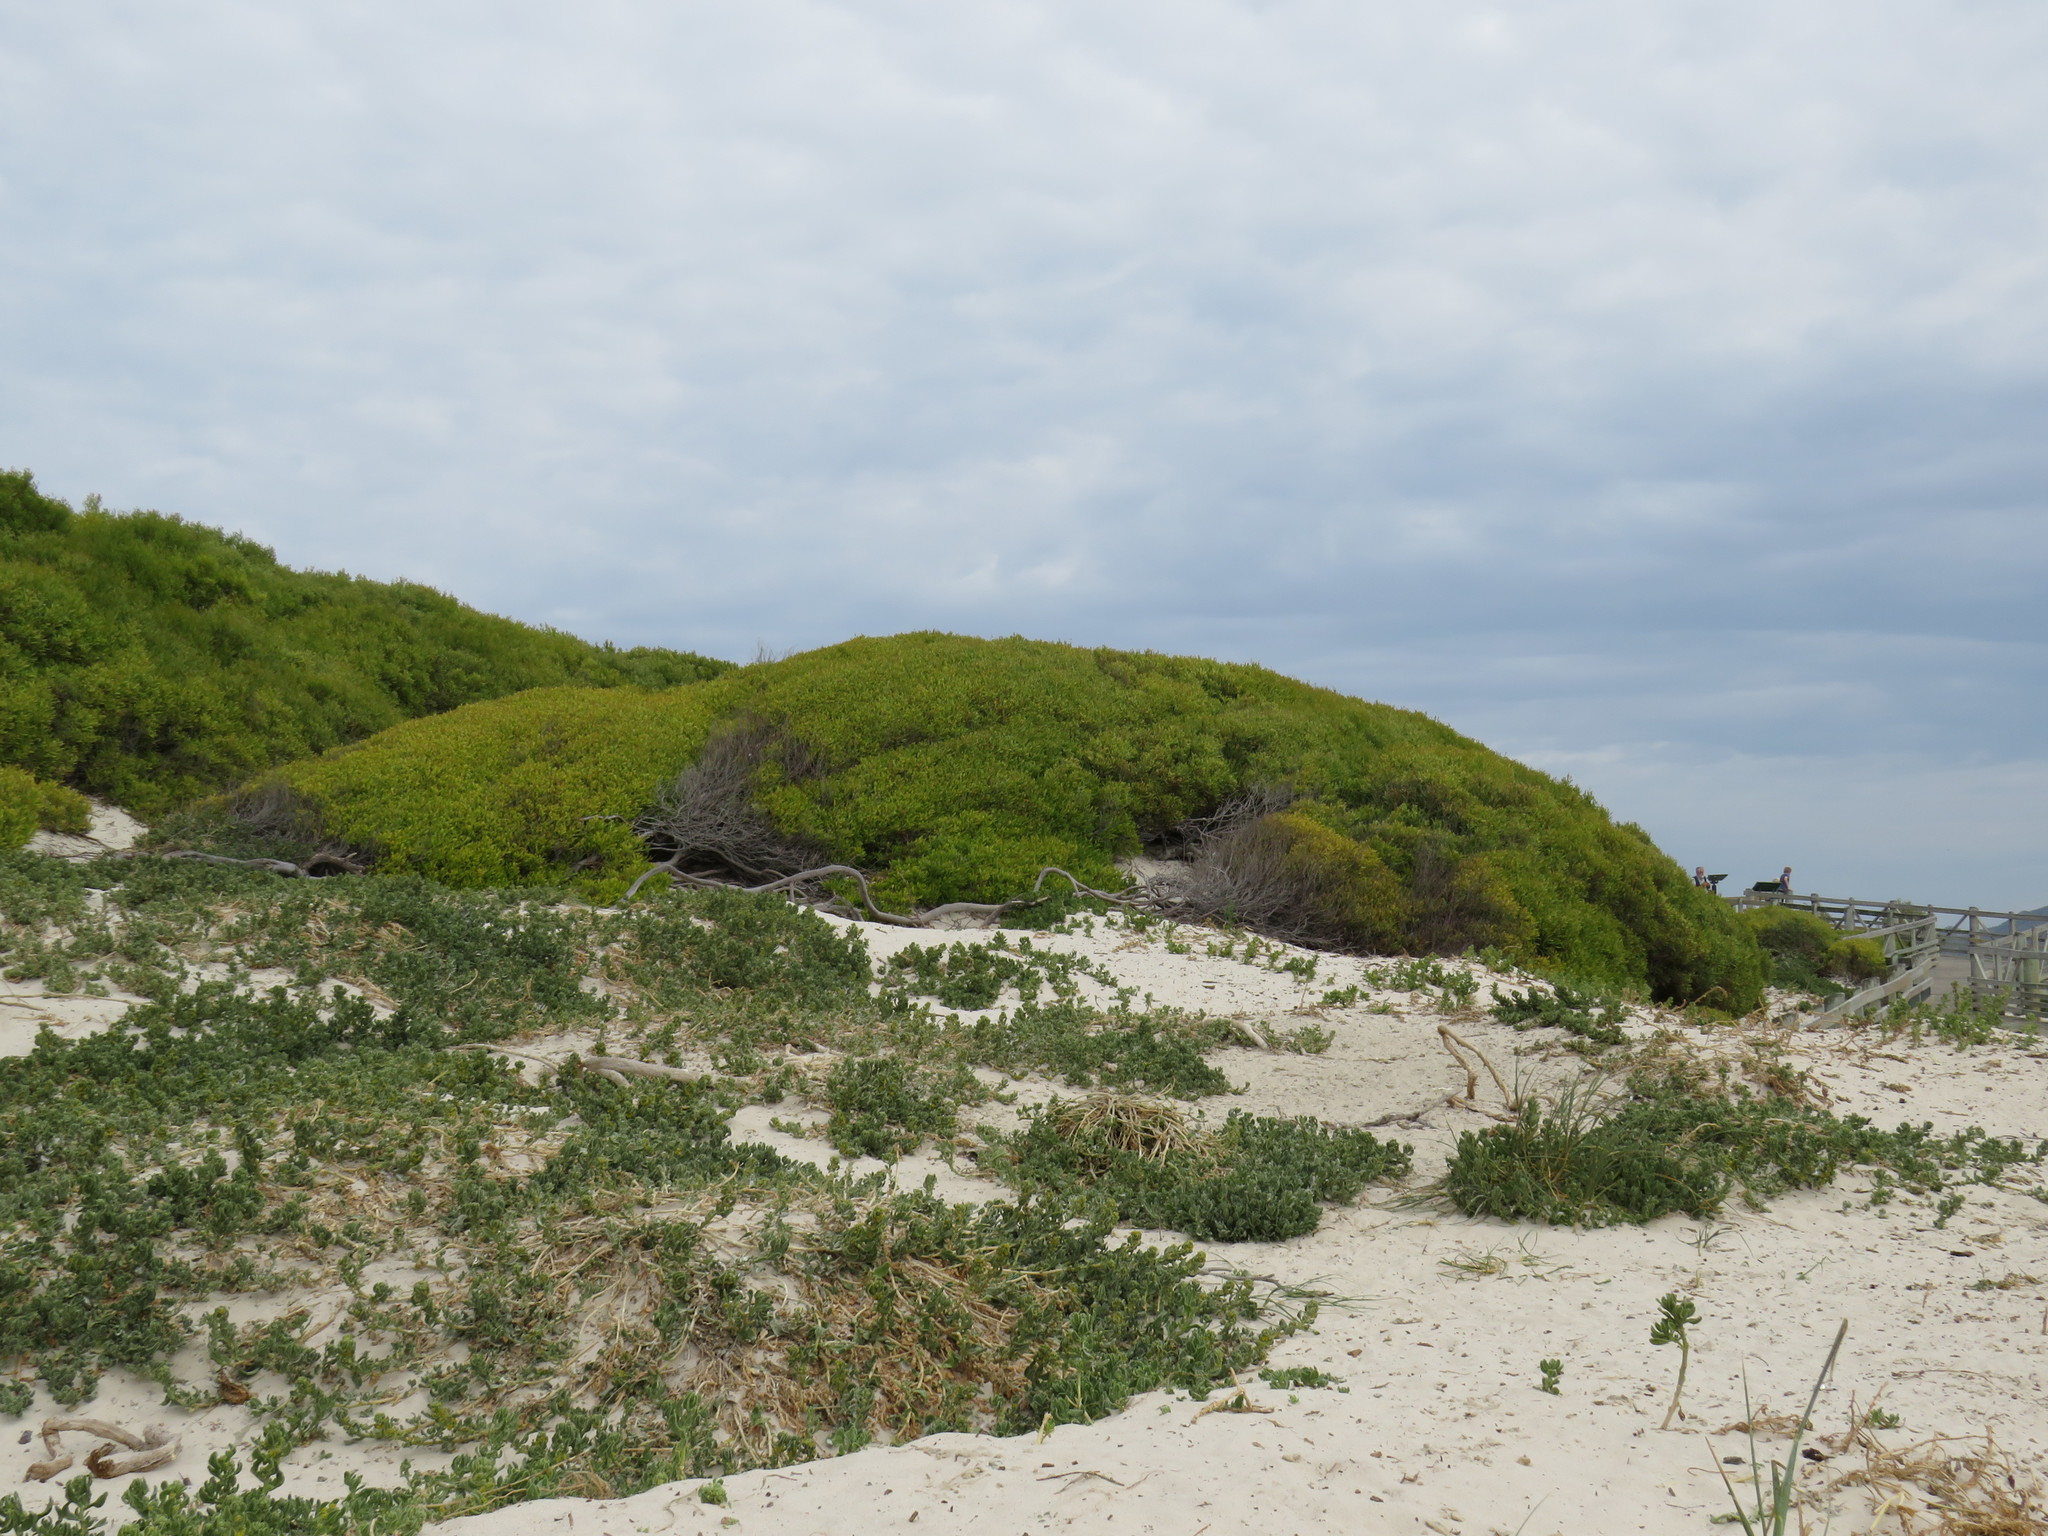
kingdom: Plantae
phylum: Tracheophyta
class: Magnoliopsida
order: Fabales
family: Fabaceae
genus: Acacia
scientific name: Acacia cyclops
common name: Coastal wattle
